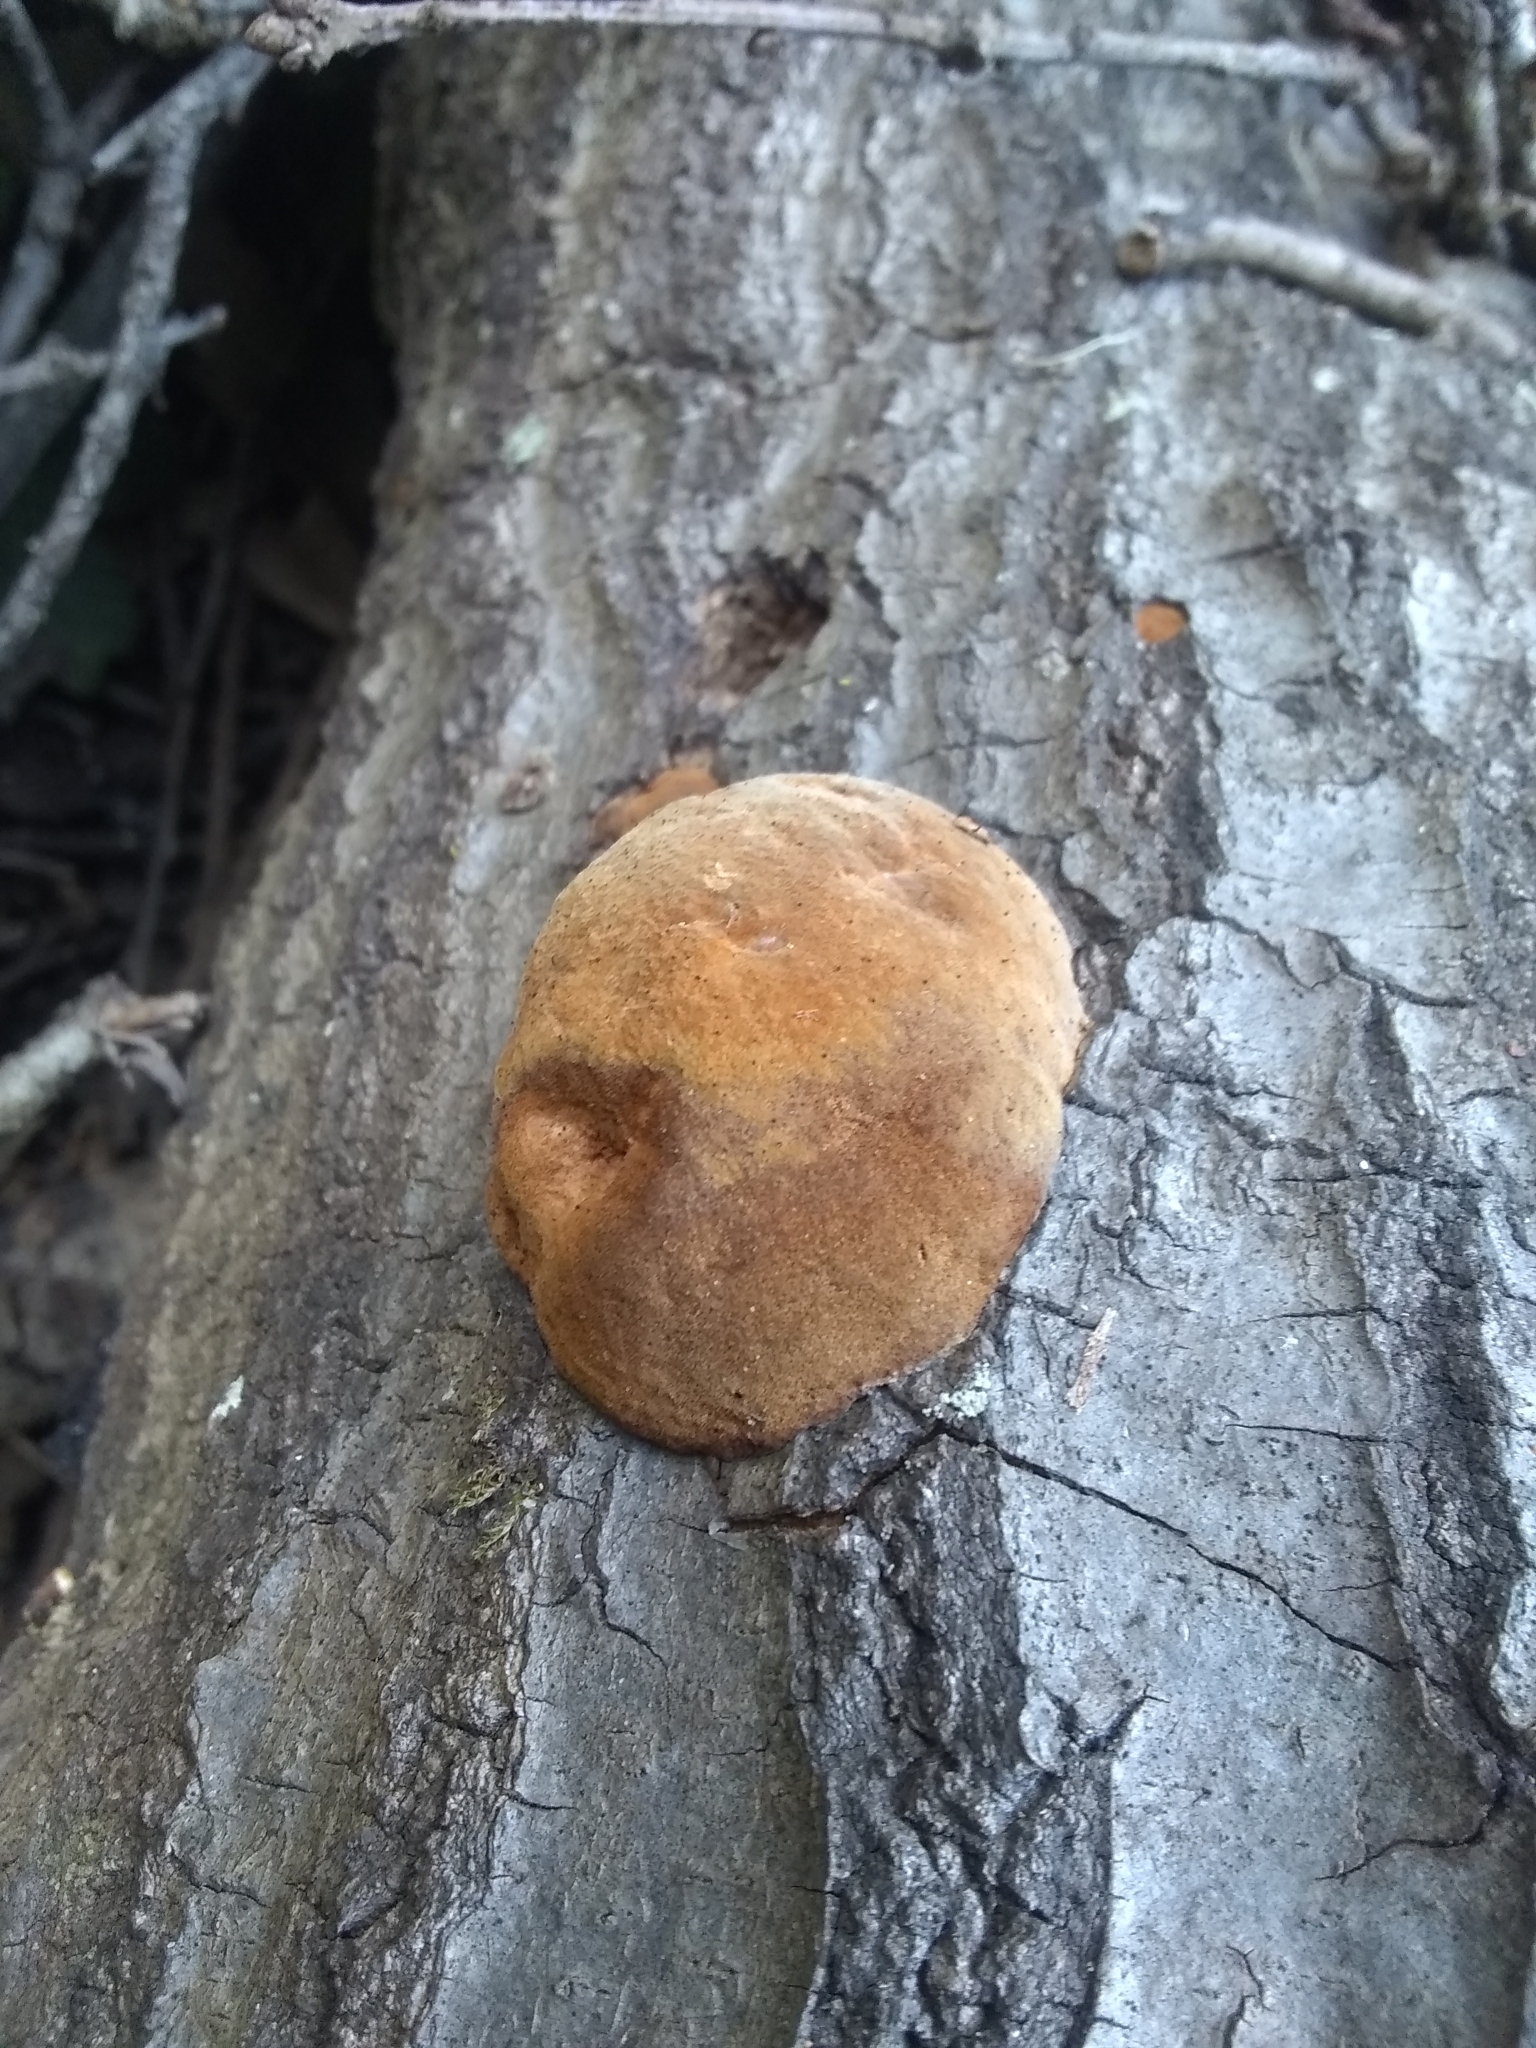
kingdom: Fungi
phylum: Basidiomycota
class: Agaricomycetes
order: Hymenochaetales
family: Hymenochaetaceae
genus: Phellinus
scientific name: Phellinus gilvus
